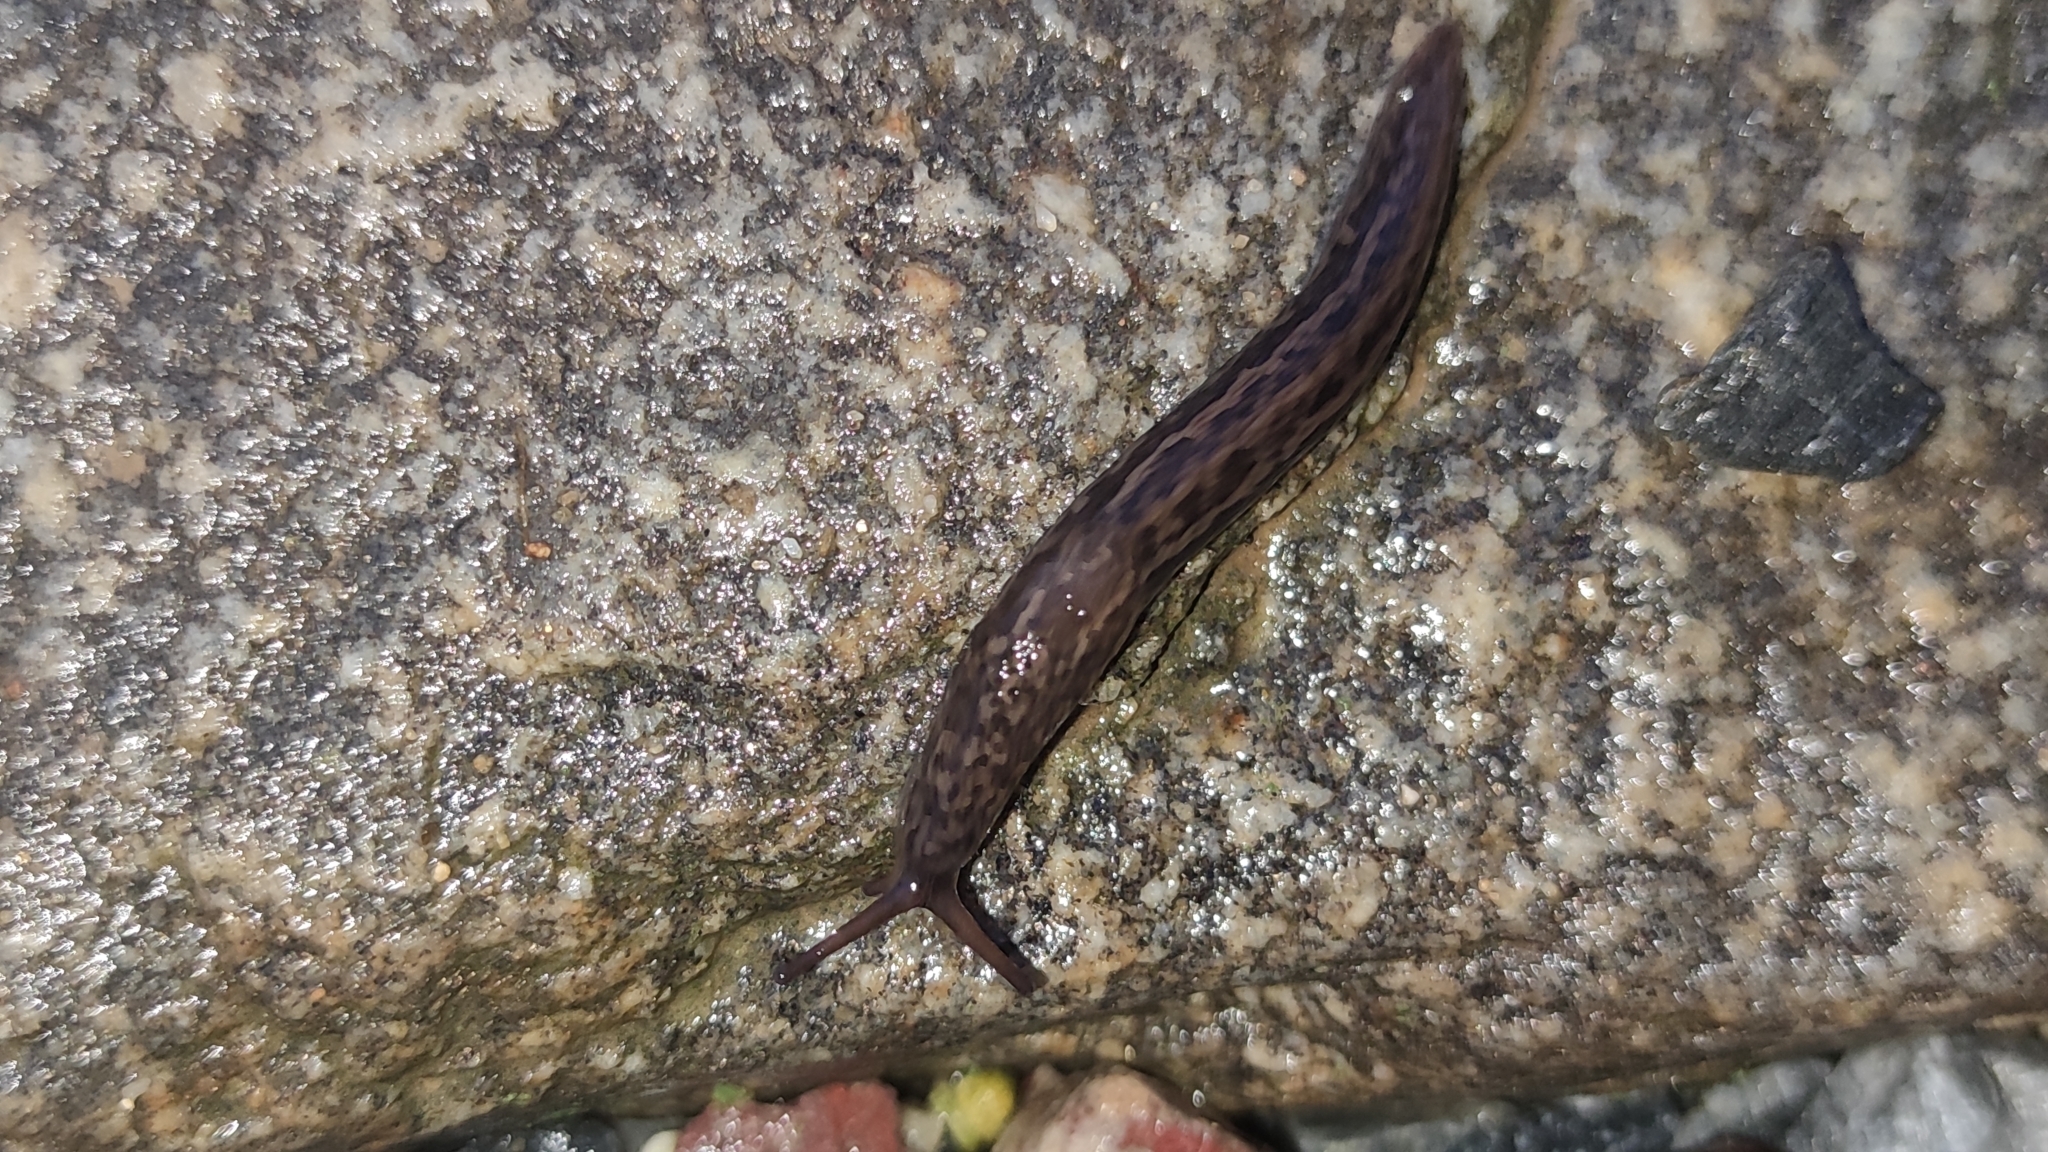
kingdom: Animalia
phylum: Mollusca
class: Gastropoda
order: Stylommatophora
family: Limacidae
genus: Limax
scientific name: Limax maximus
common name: Great grey slug
